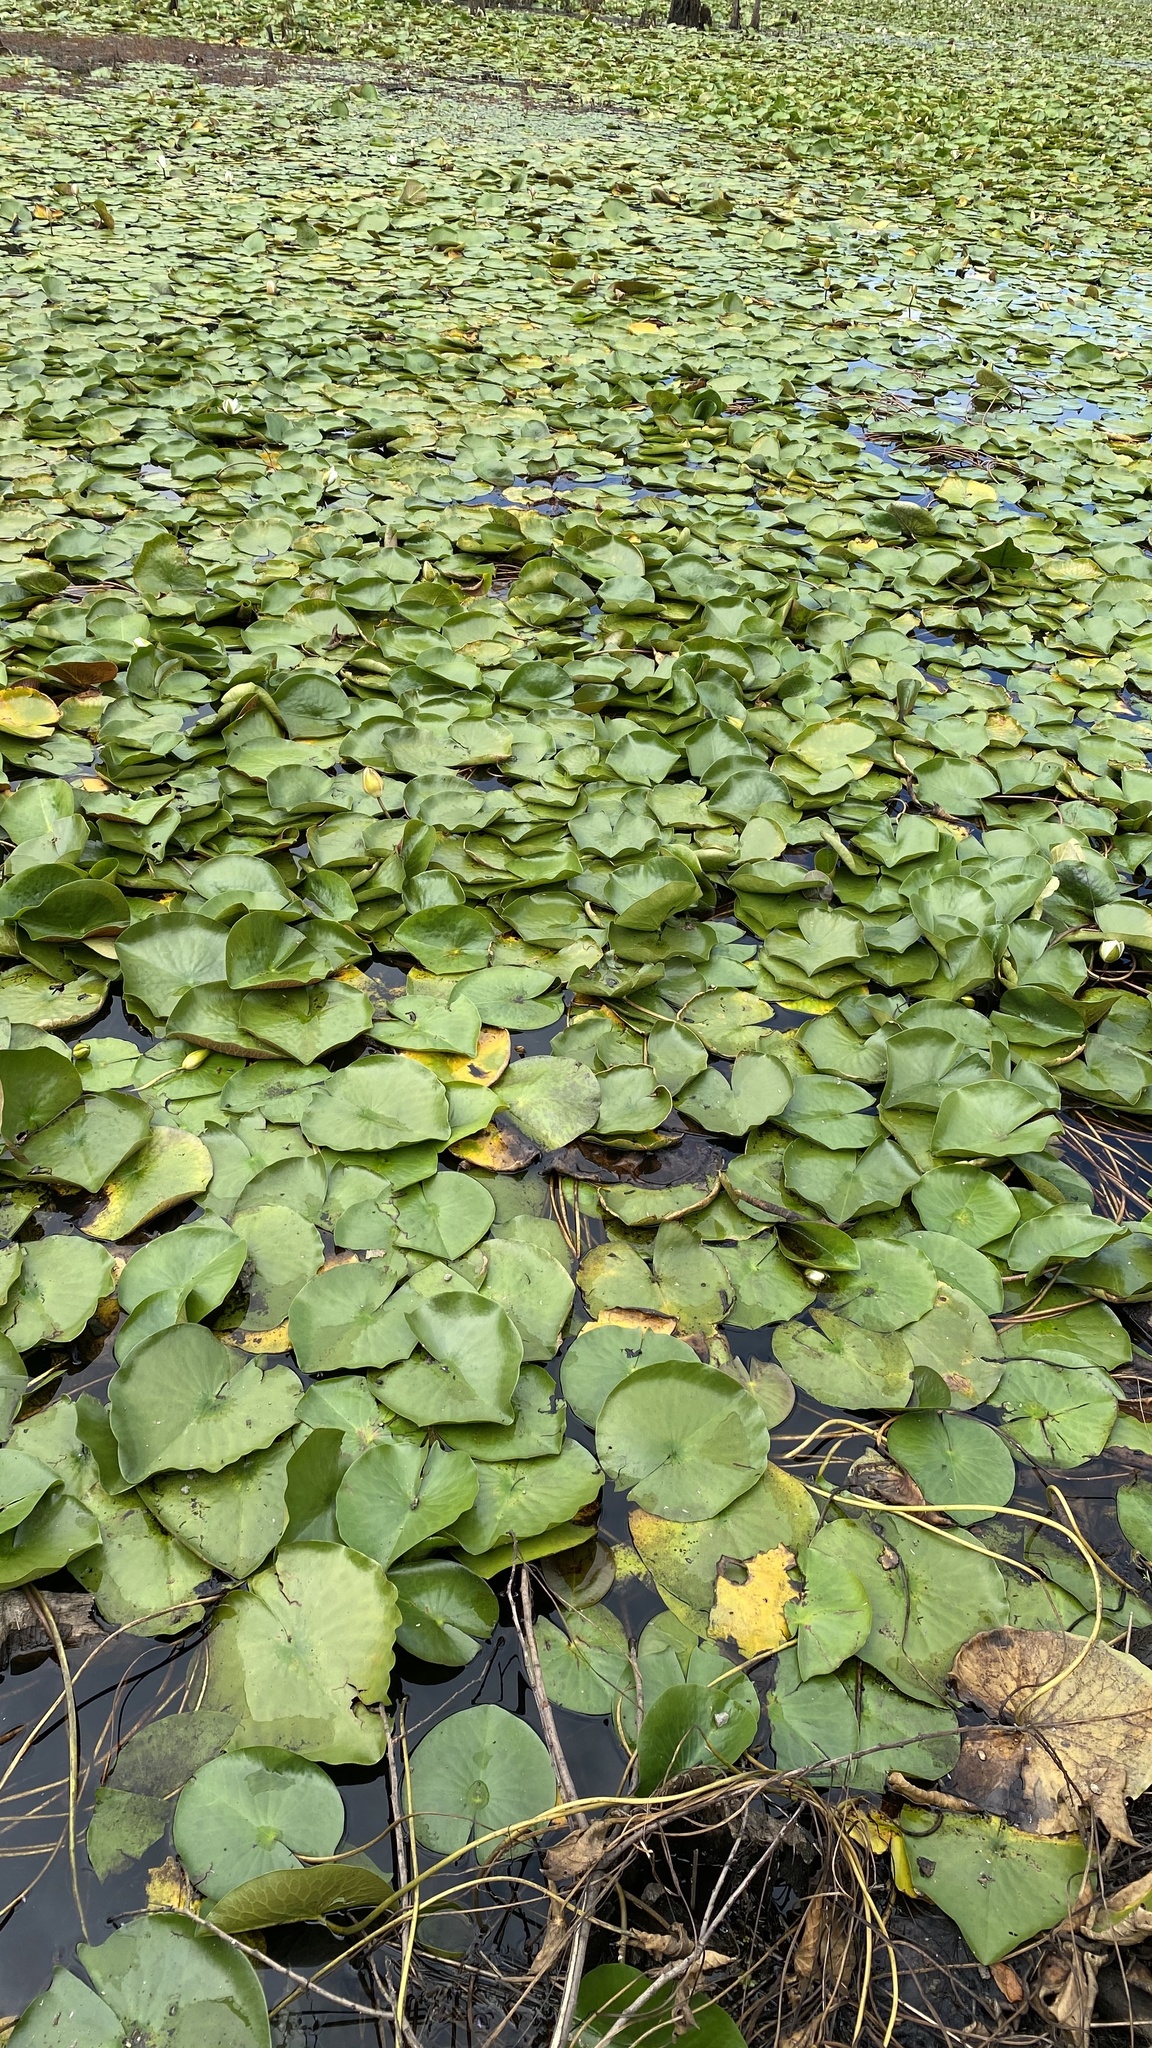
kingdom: Plantae
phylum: Tracheophyta
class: Magnoliopsida
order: Nymphaeales
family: Nymphaeaceae
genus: Nymphaea
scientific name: Nymphaea odorata
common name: Fragrant water-lily
